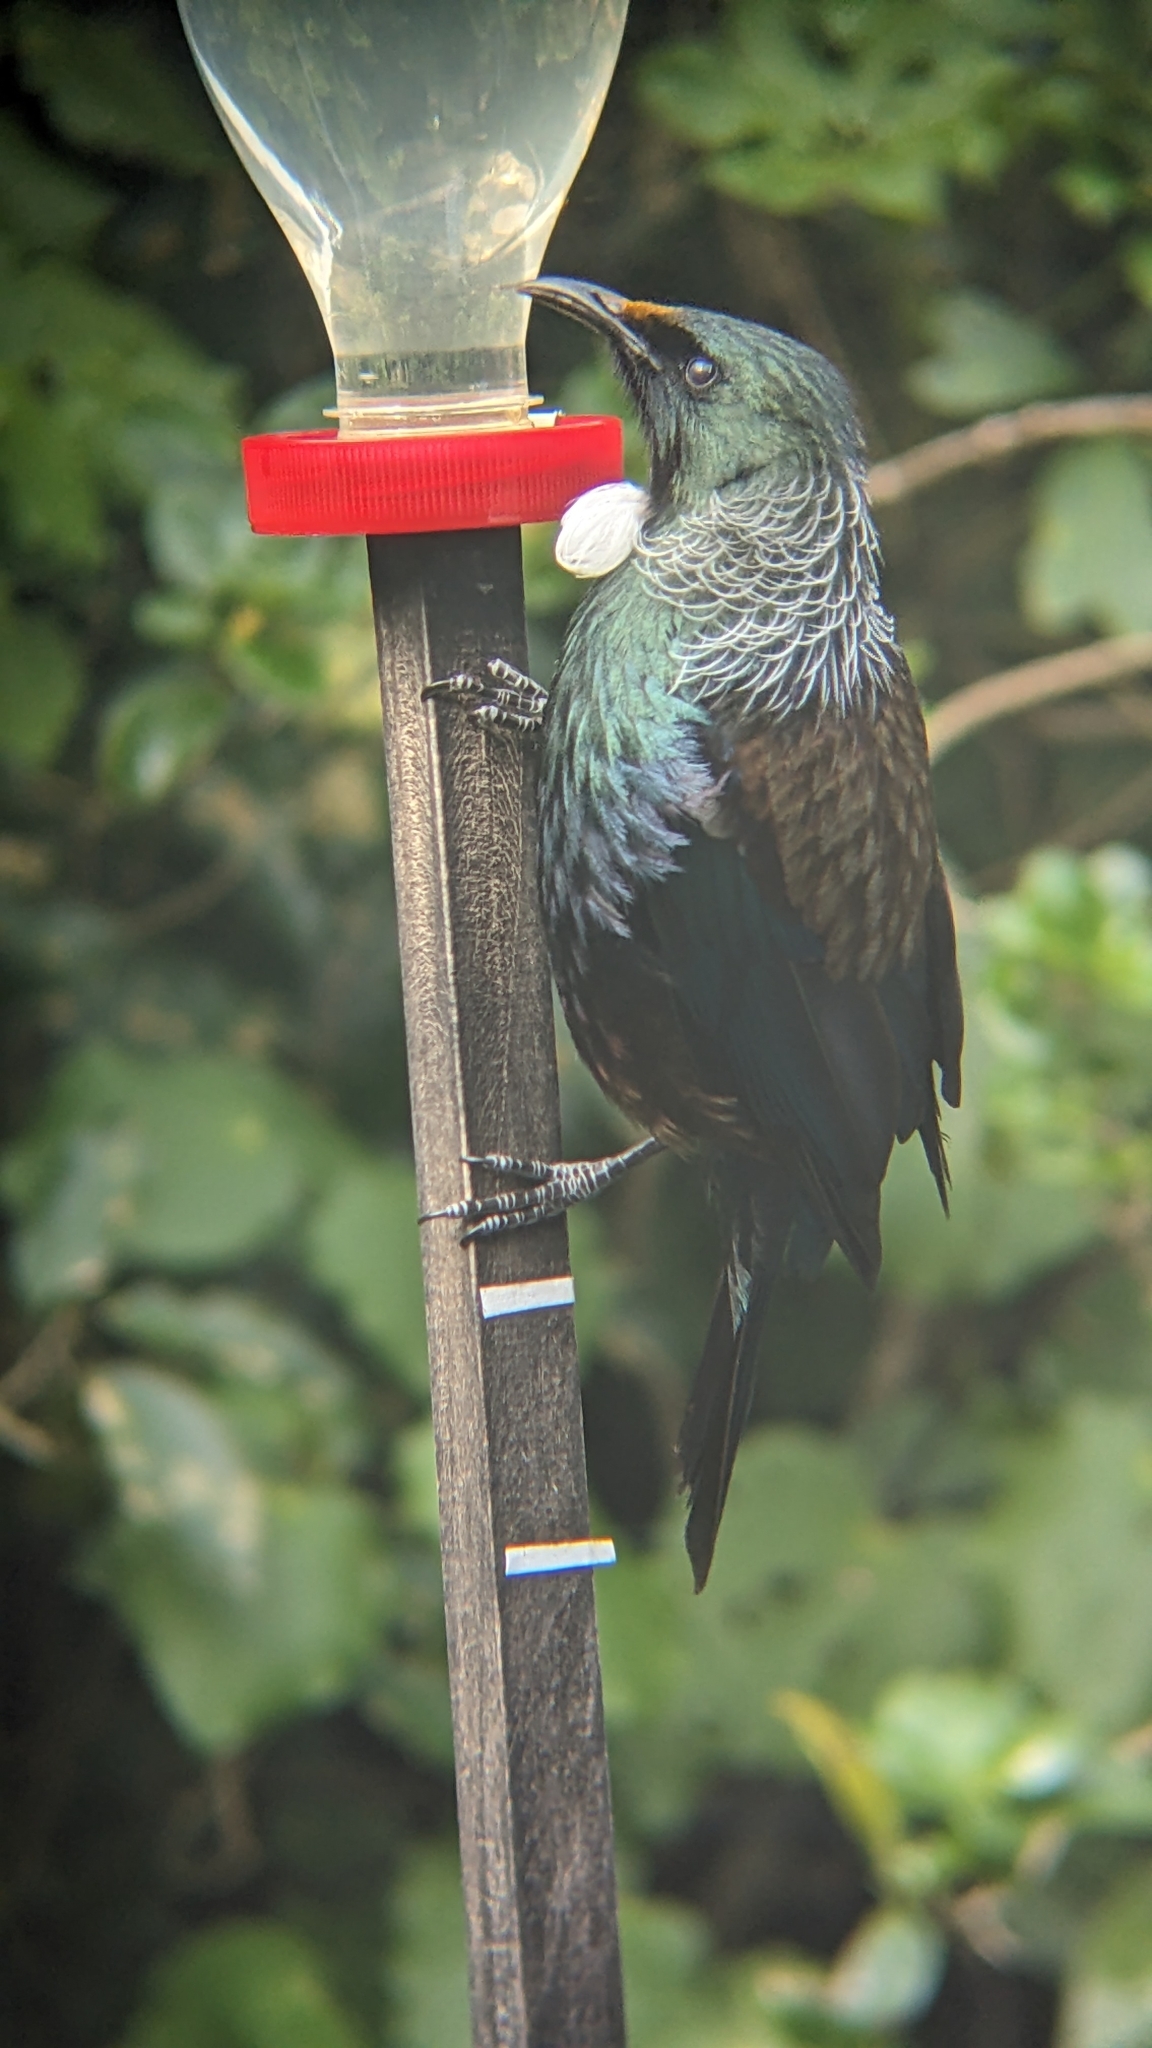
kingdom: Animalia
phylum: Chordata
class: Aves
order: Passeriformes
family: Meliphagidae
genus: Prosthemadera
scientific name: Prosthemadera novaeseelandiae
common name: Tui
